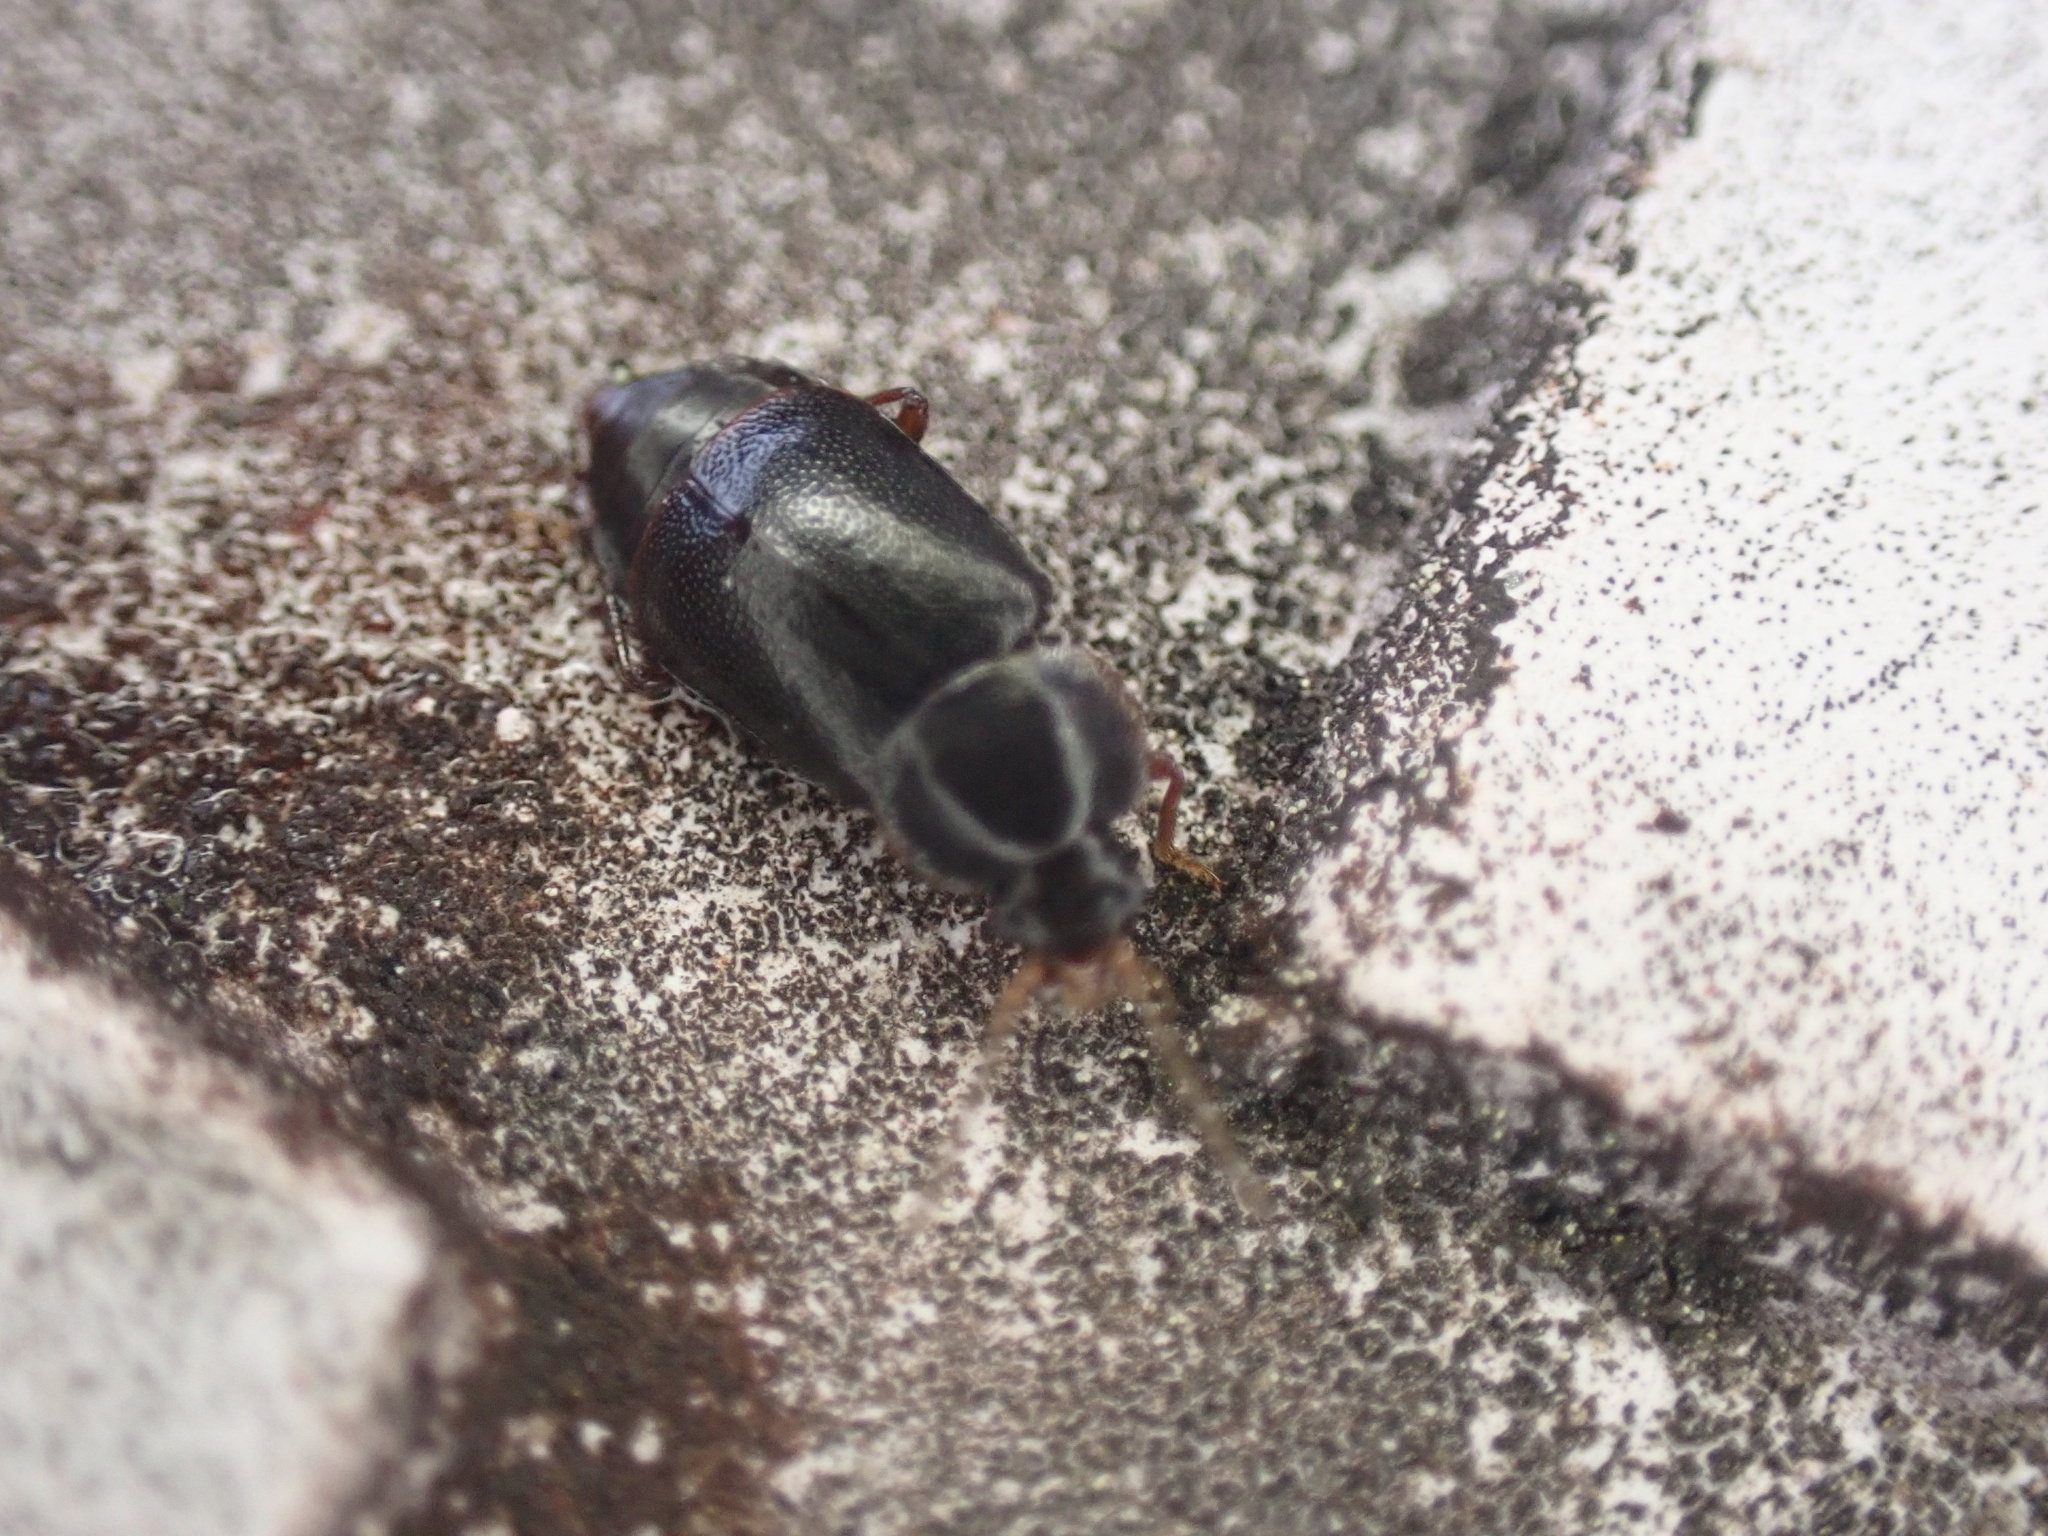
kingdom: Animalia
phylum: Arthropoda
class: Insecta
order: Coleoptera
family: Staphylinidae
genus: Olophrum
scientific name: Olophrum obtectum
